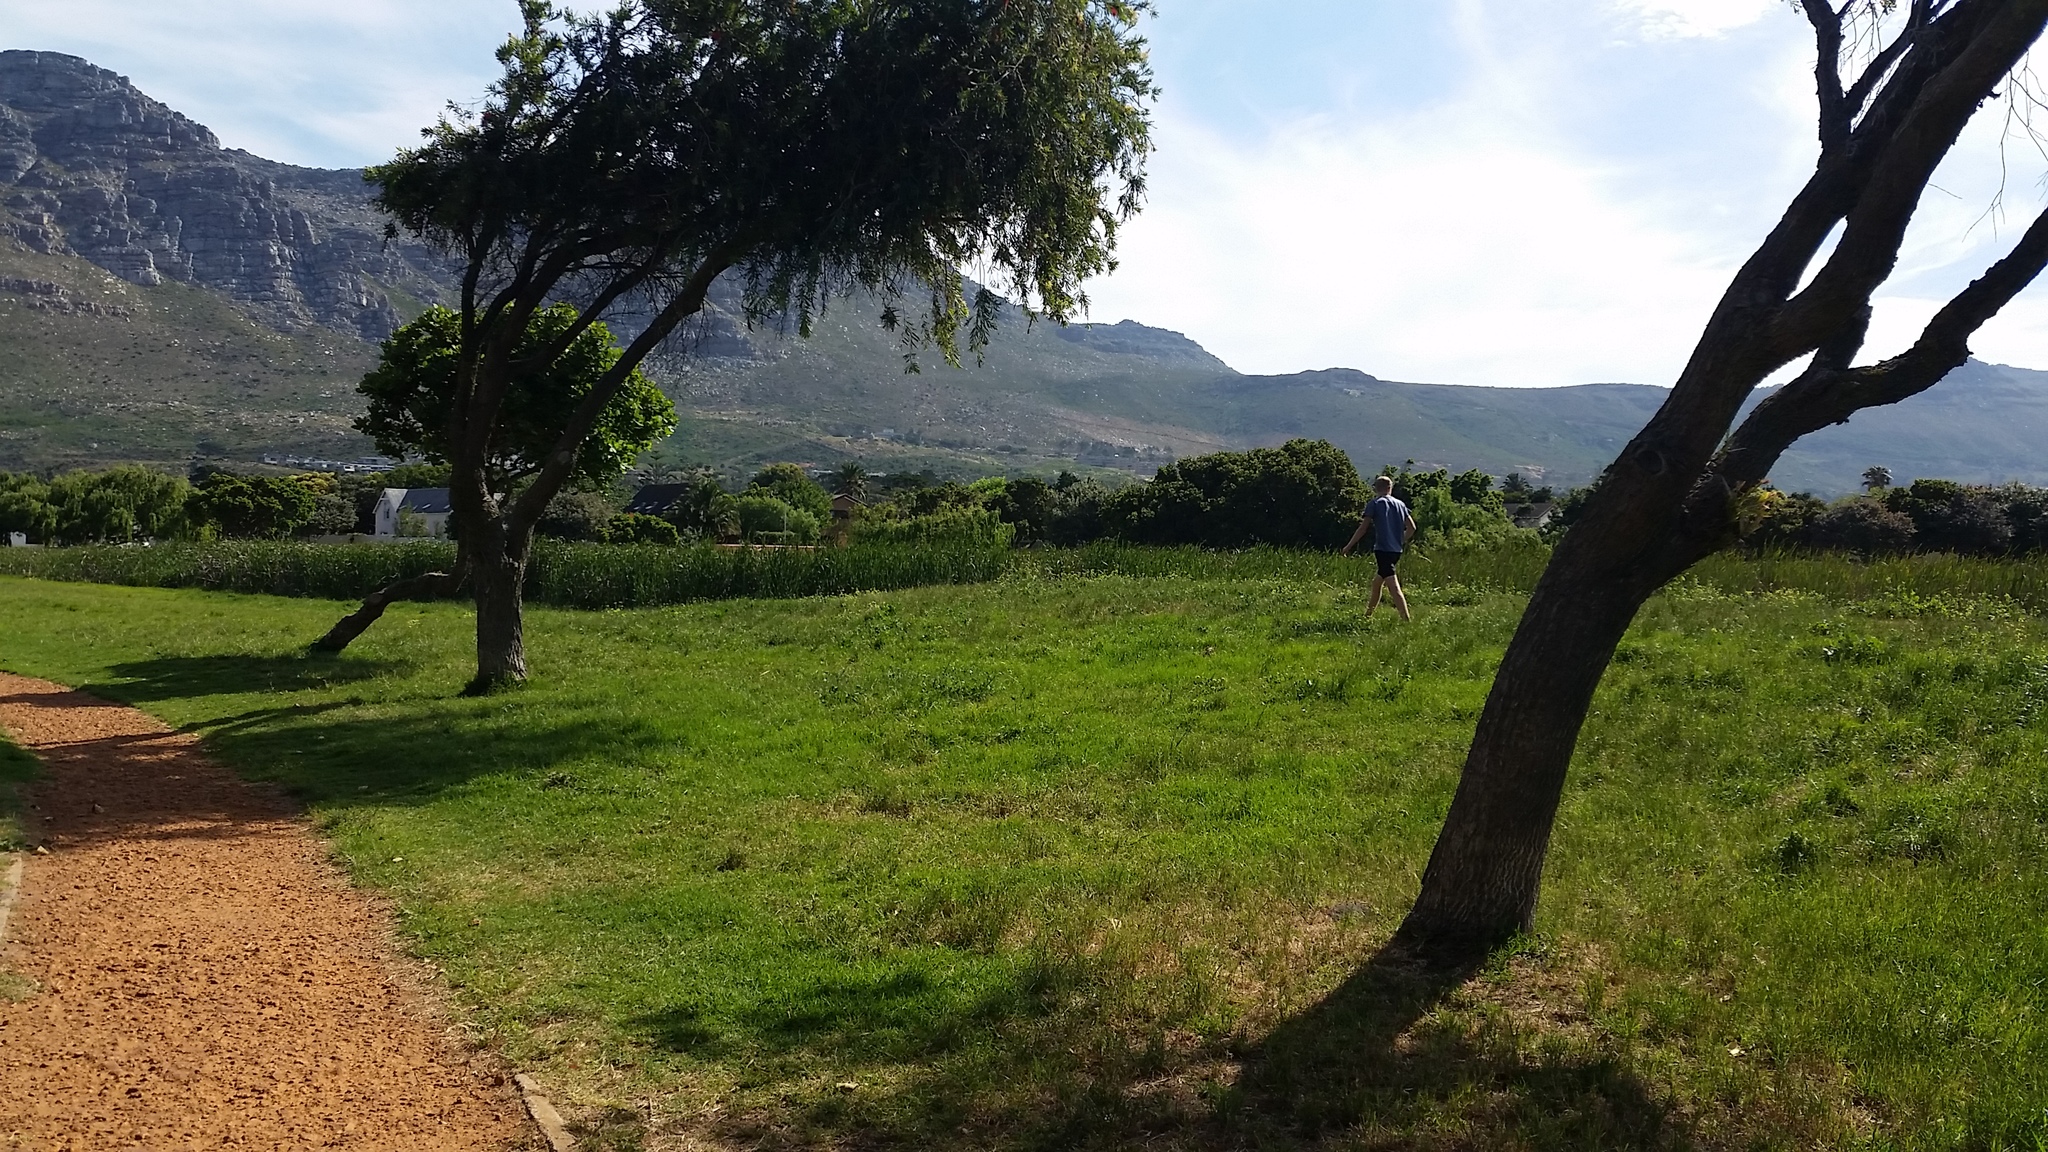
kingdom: Plantae
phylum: Tracheophyta
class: Liliopsida
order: Poales
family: Poaceae
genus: Cenchrus
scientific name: Cenchrus clandestinus
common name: Kikuyugrass
